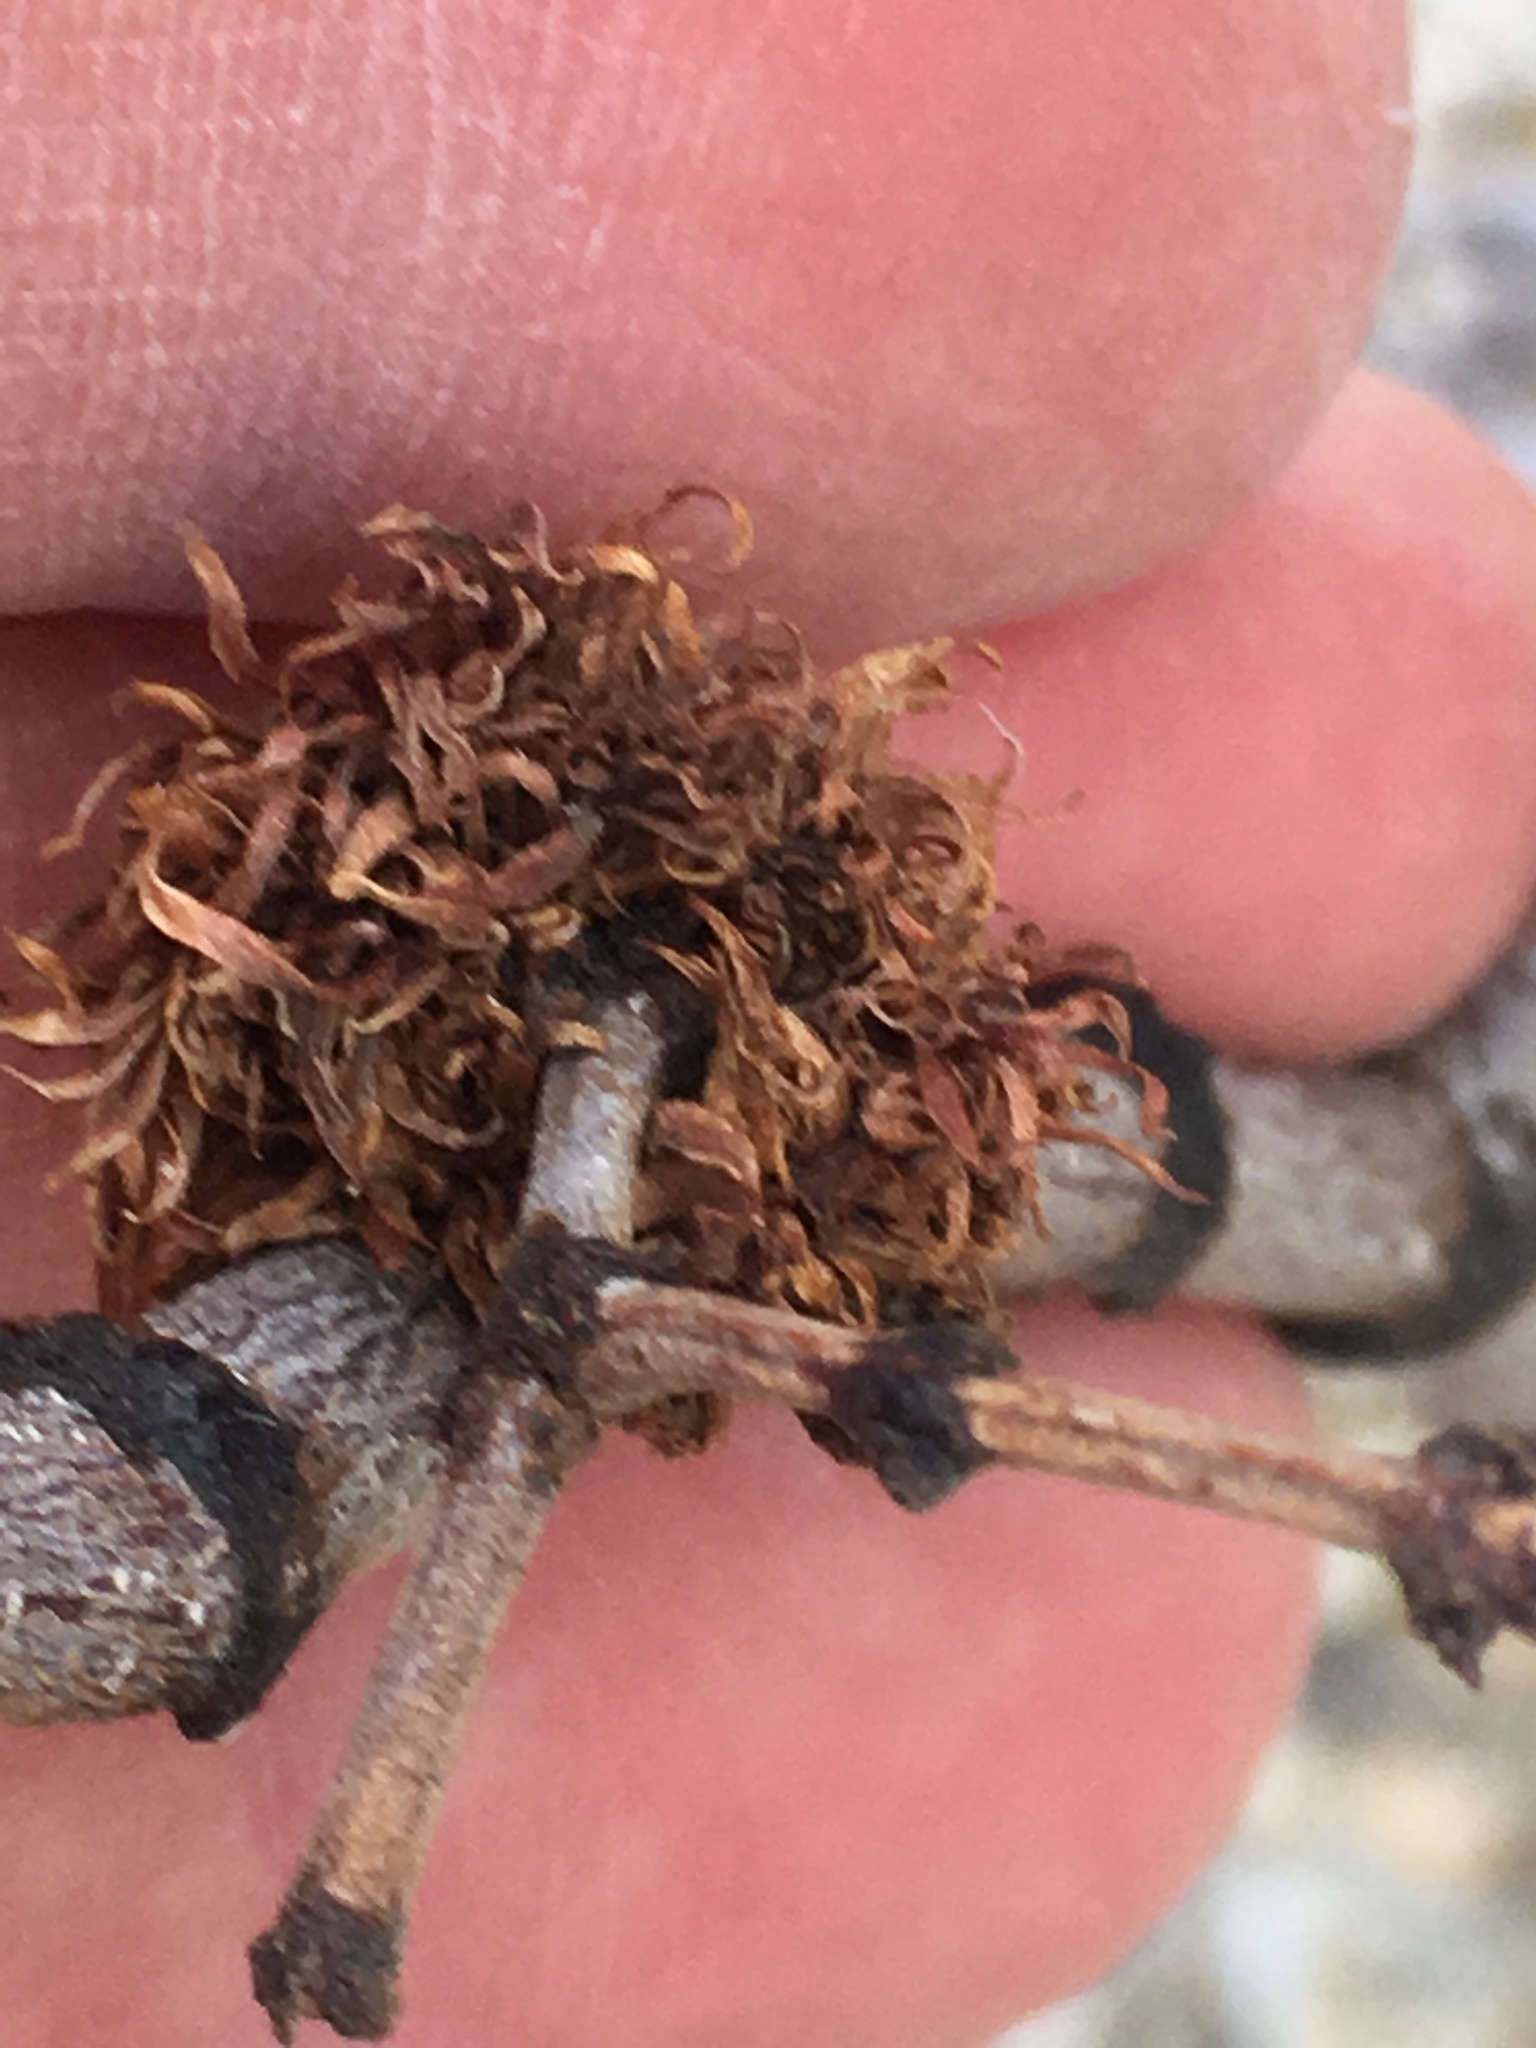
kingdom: Plantae
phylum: Tracheophyta
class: Magnoliopsida
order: Zygophyllales
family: Zygophyllaceae
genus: Larrea
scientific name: Larrea tridentata
